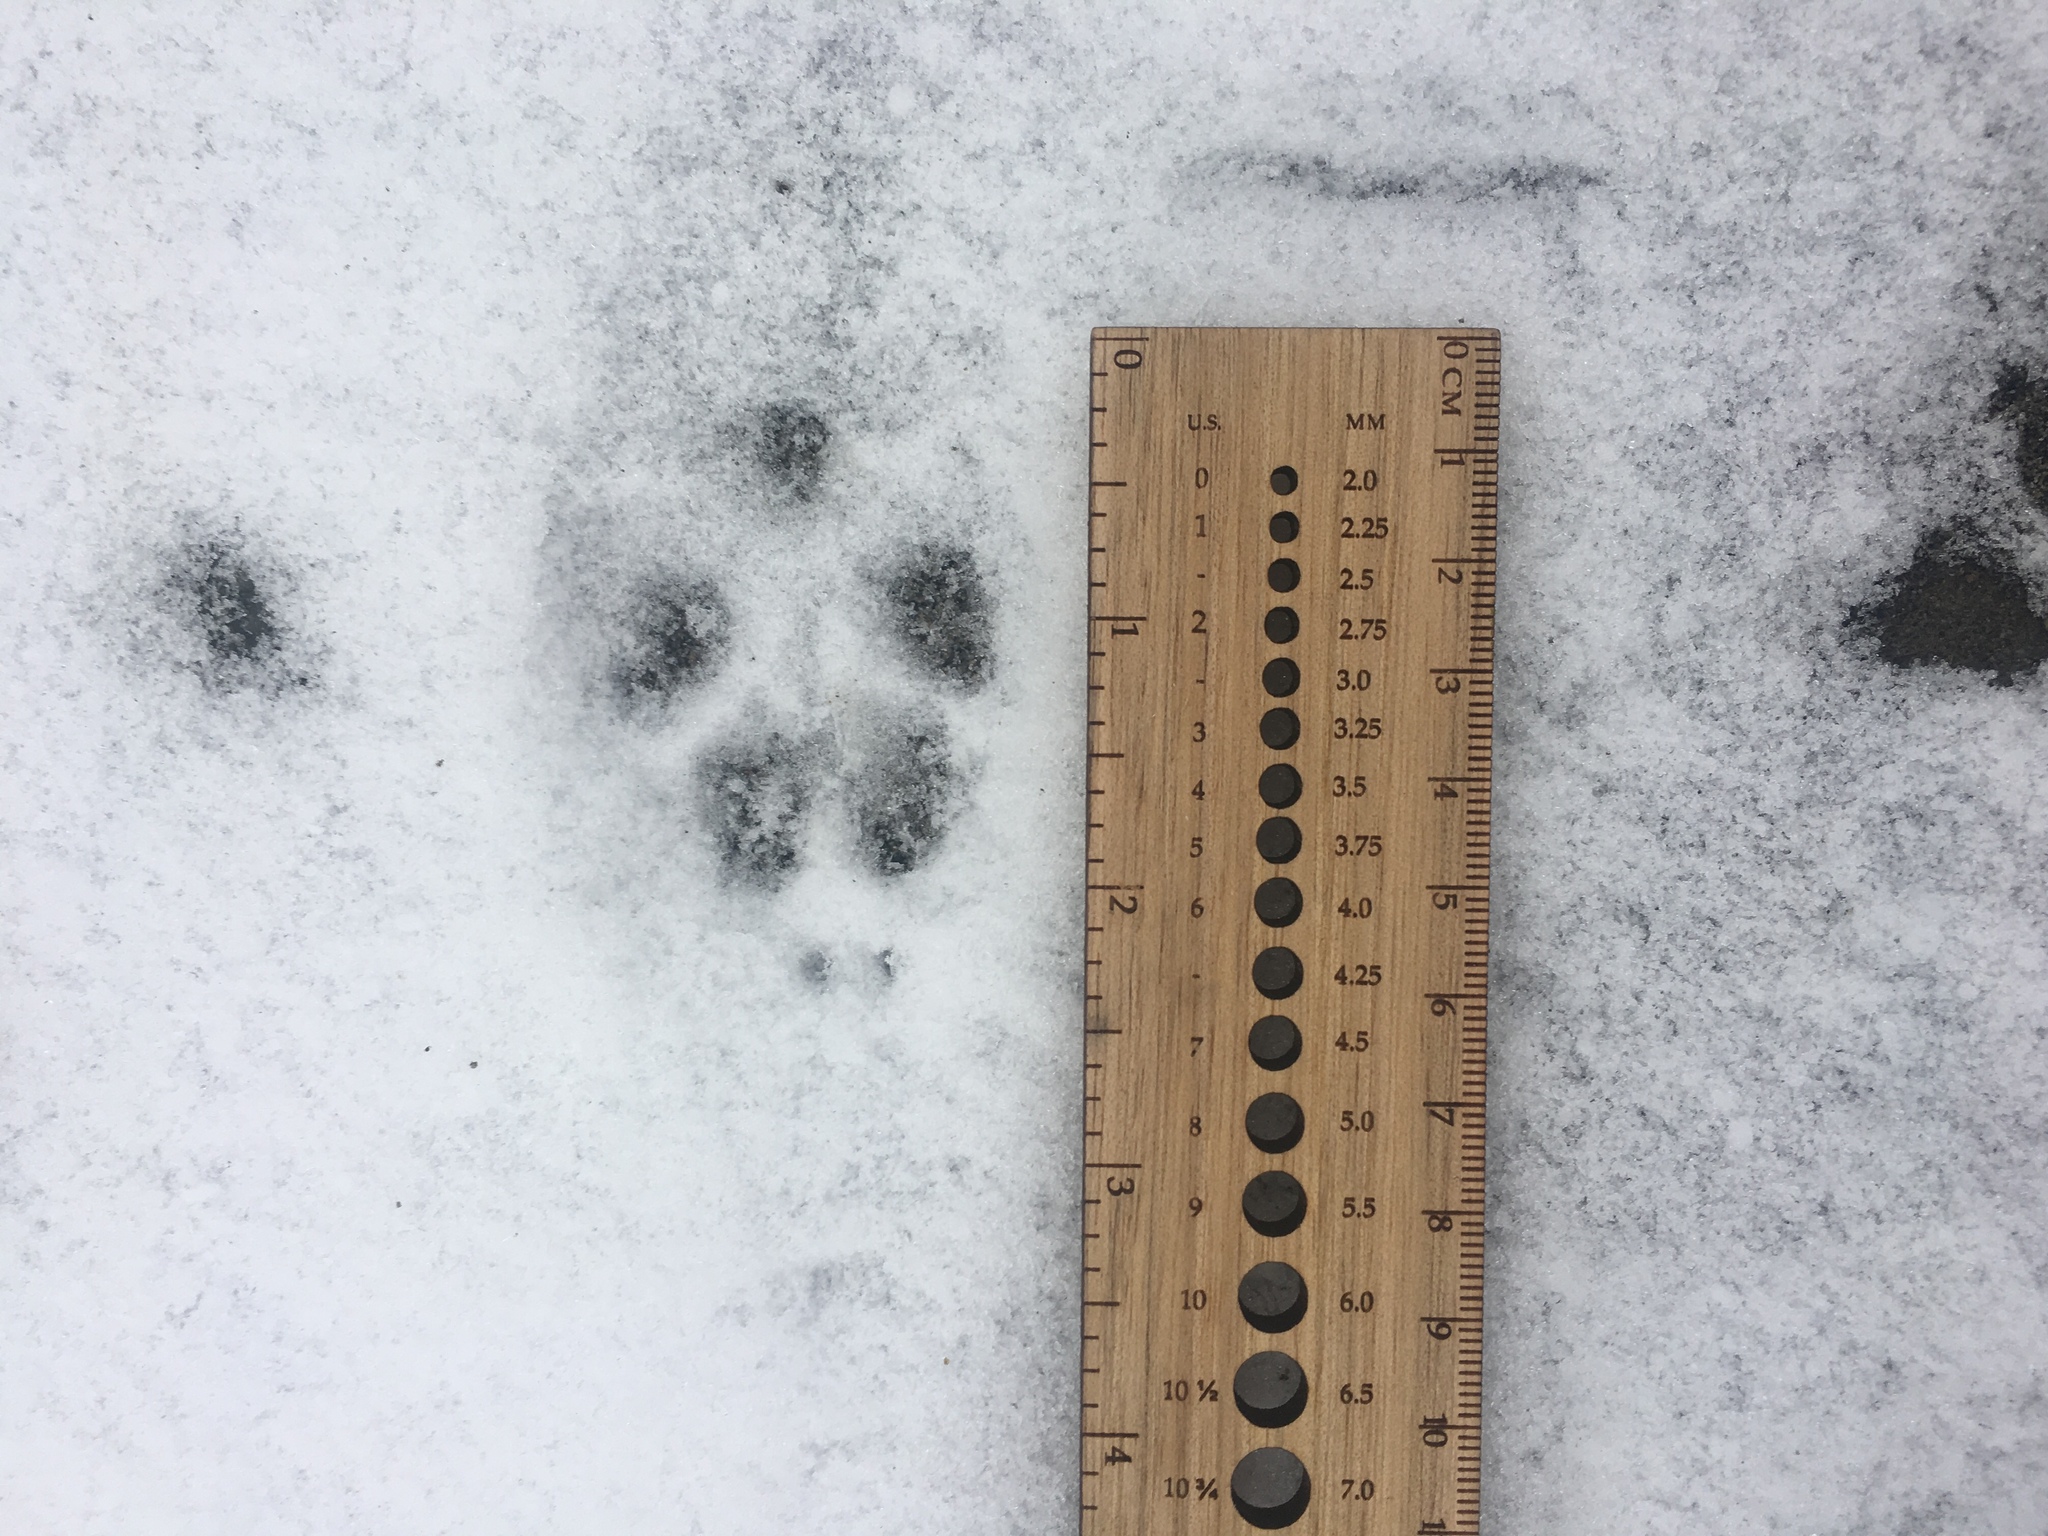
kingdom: Animalia
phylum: Chordata
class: Mammalia
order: Carnivora
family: Canidae
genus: Canis
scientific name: Canis latrans
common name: Coyote
